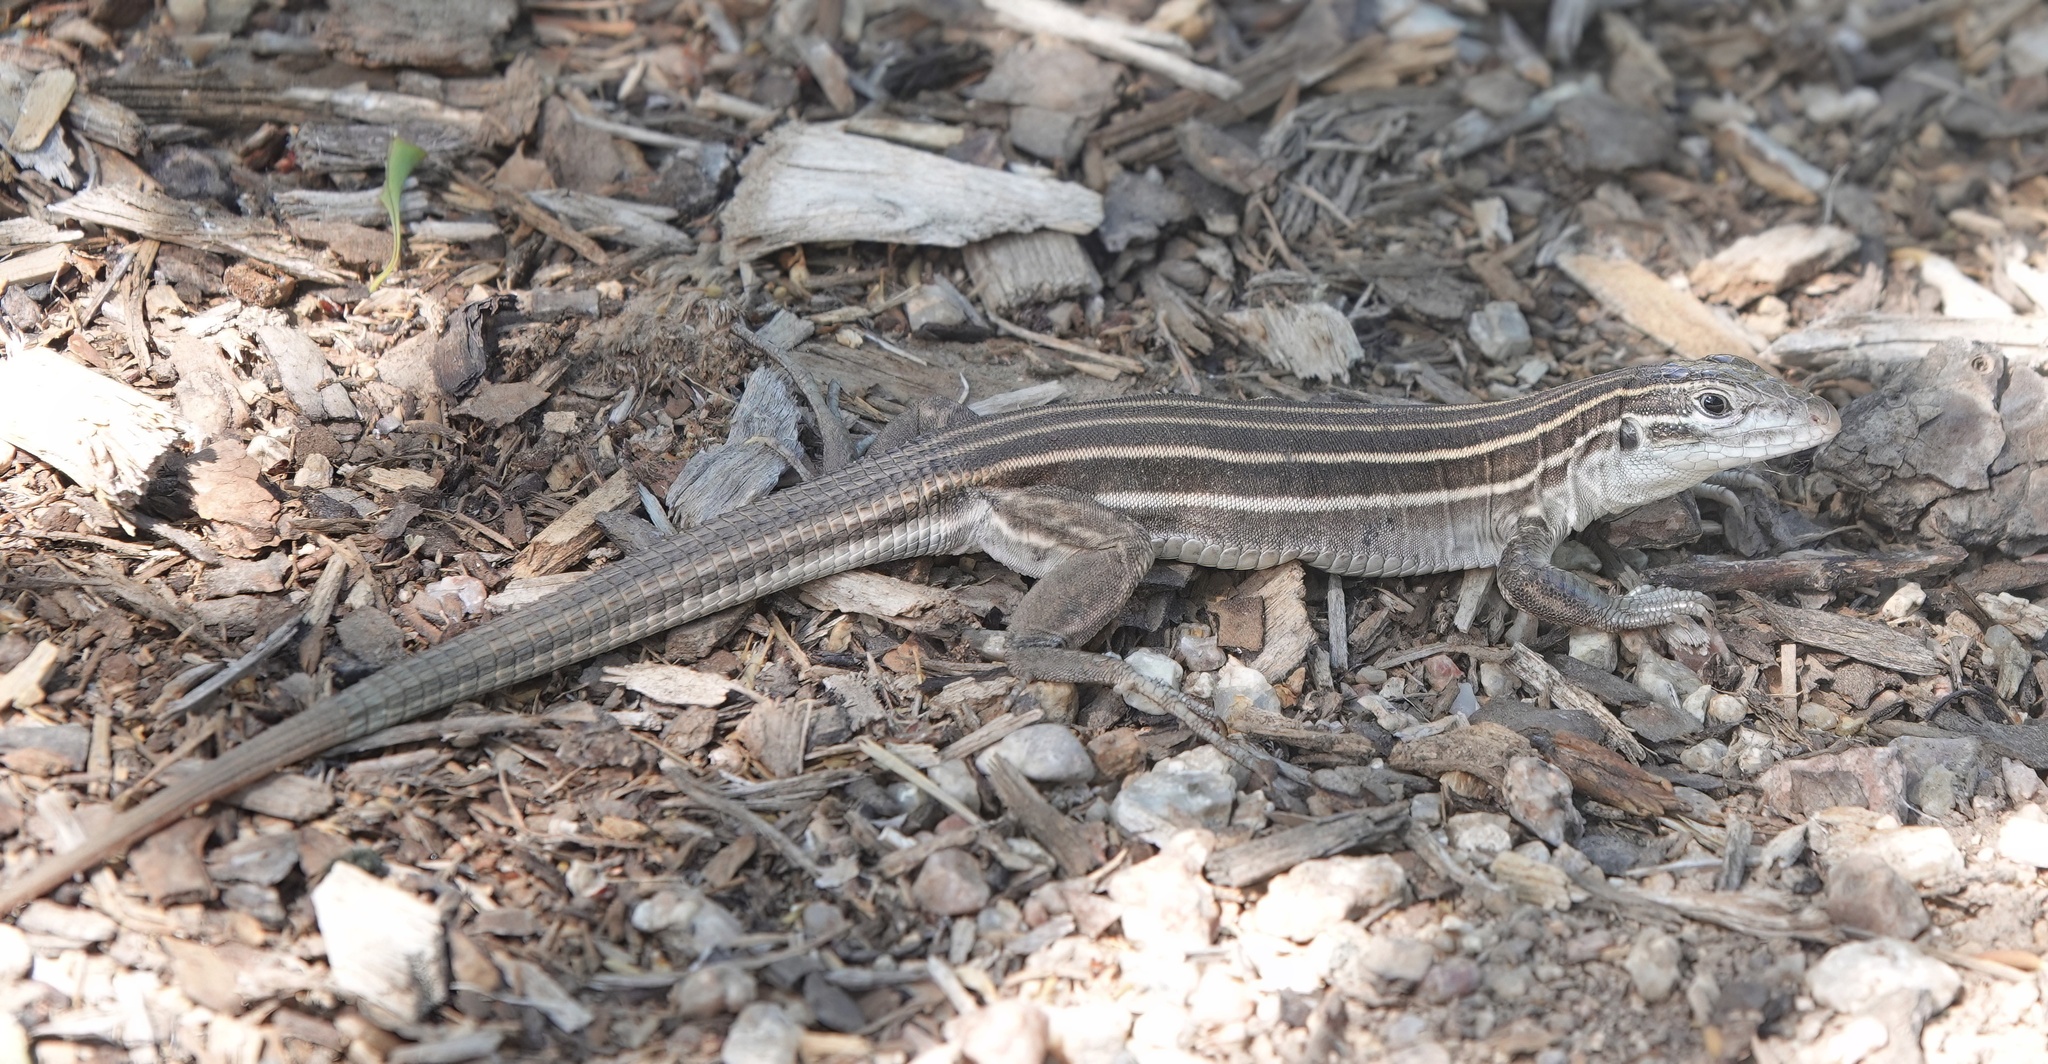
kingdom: Animalia
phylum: Chordata
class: Squamata
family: Teiidae
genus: Aspidoscelis
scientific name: Aspidoscelis uniparens
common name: Desert grassland whiptail
